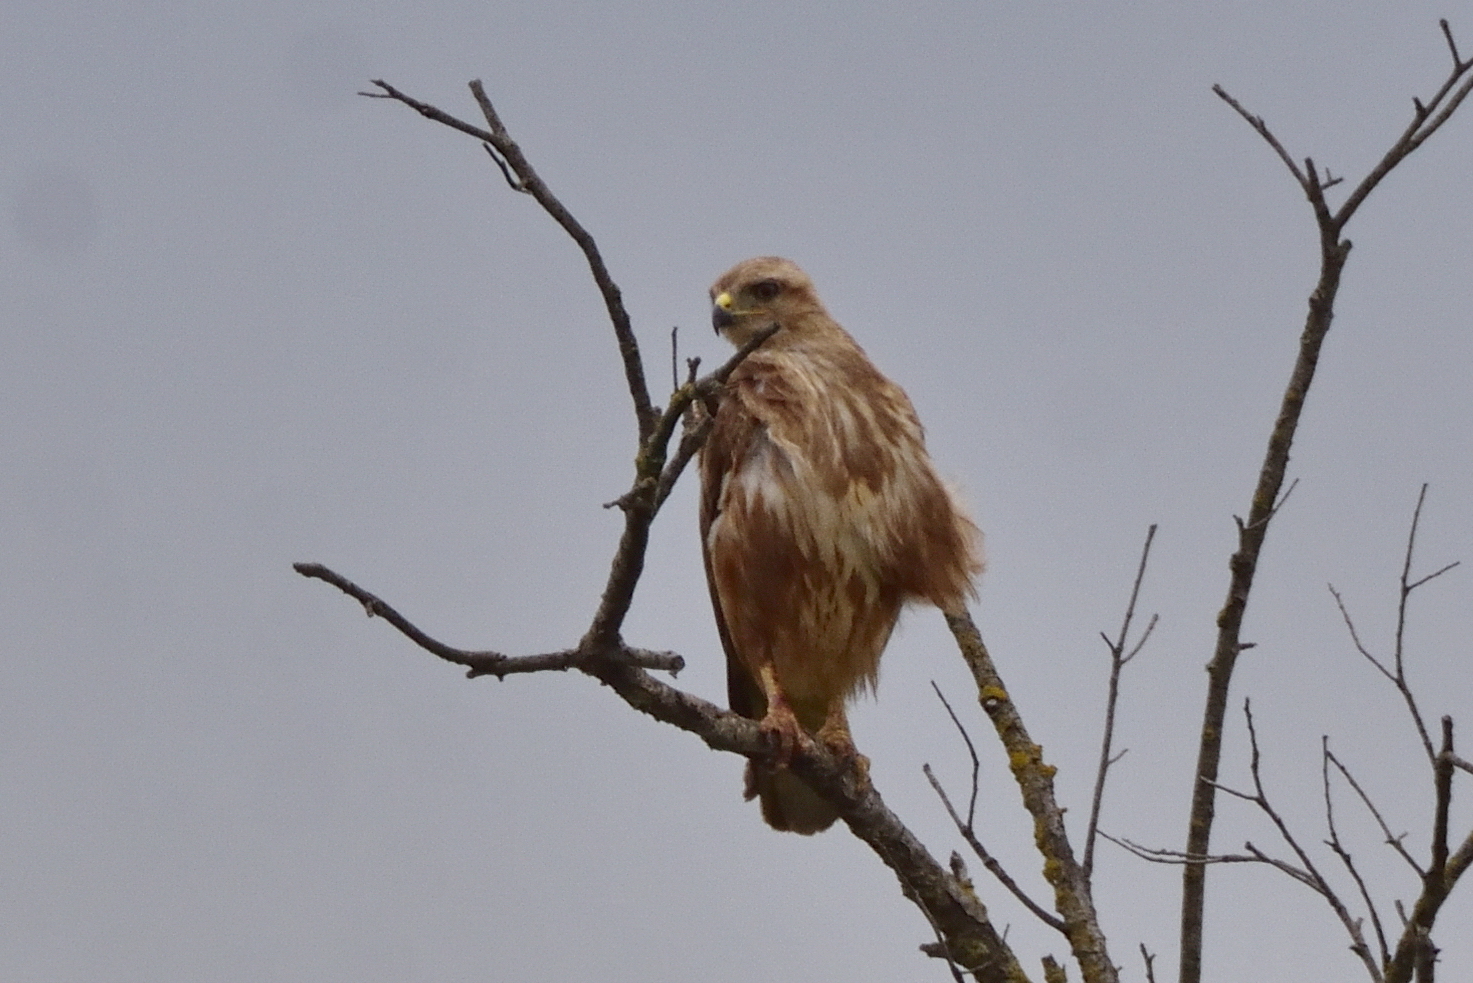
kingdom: Animalia
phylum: Chordata
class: Aves
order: Accipitriformes
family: Accipitridae
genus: Buteo
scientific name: Buteo rufinus
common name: Long-legged buzzard
